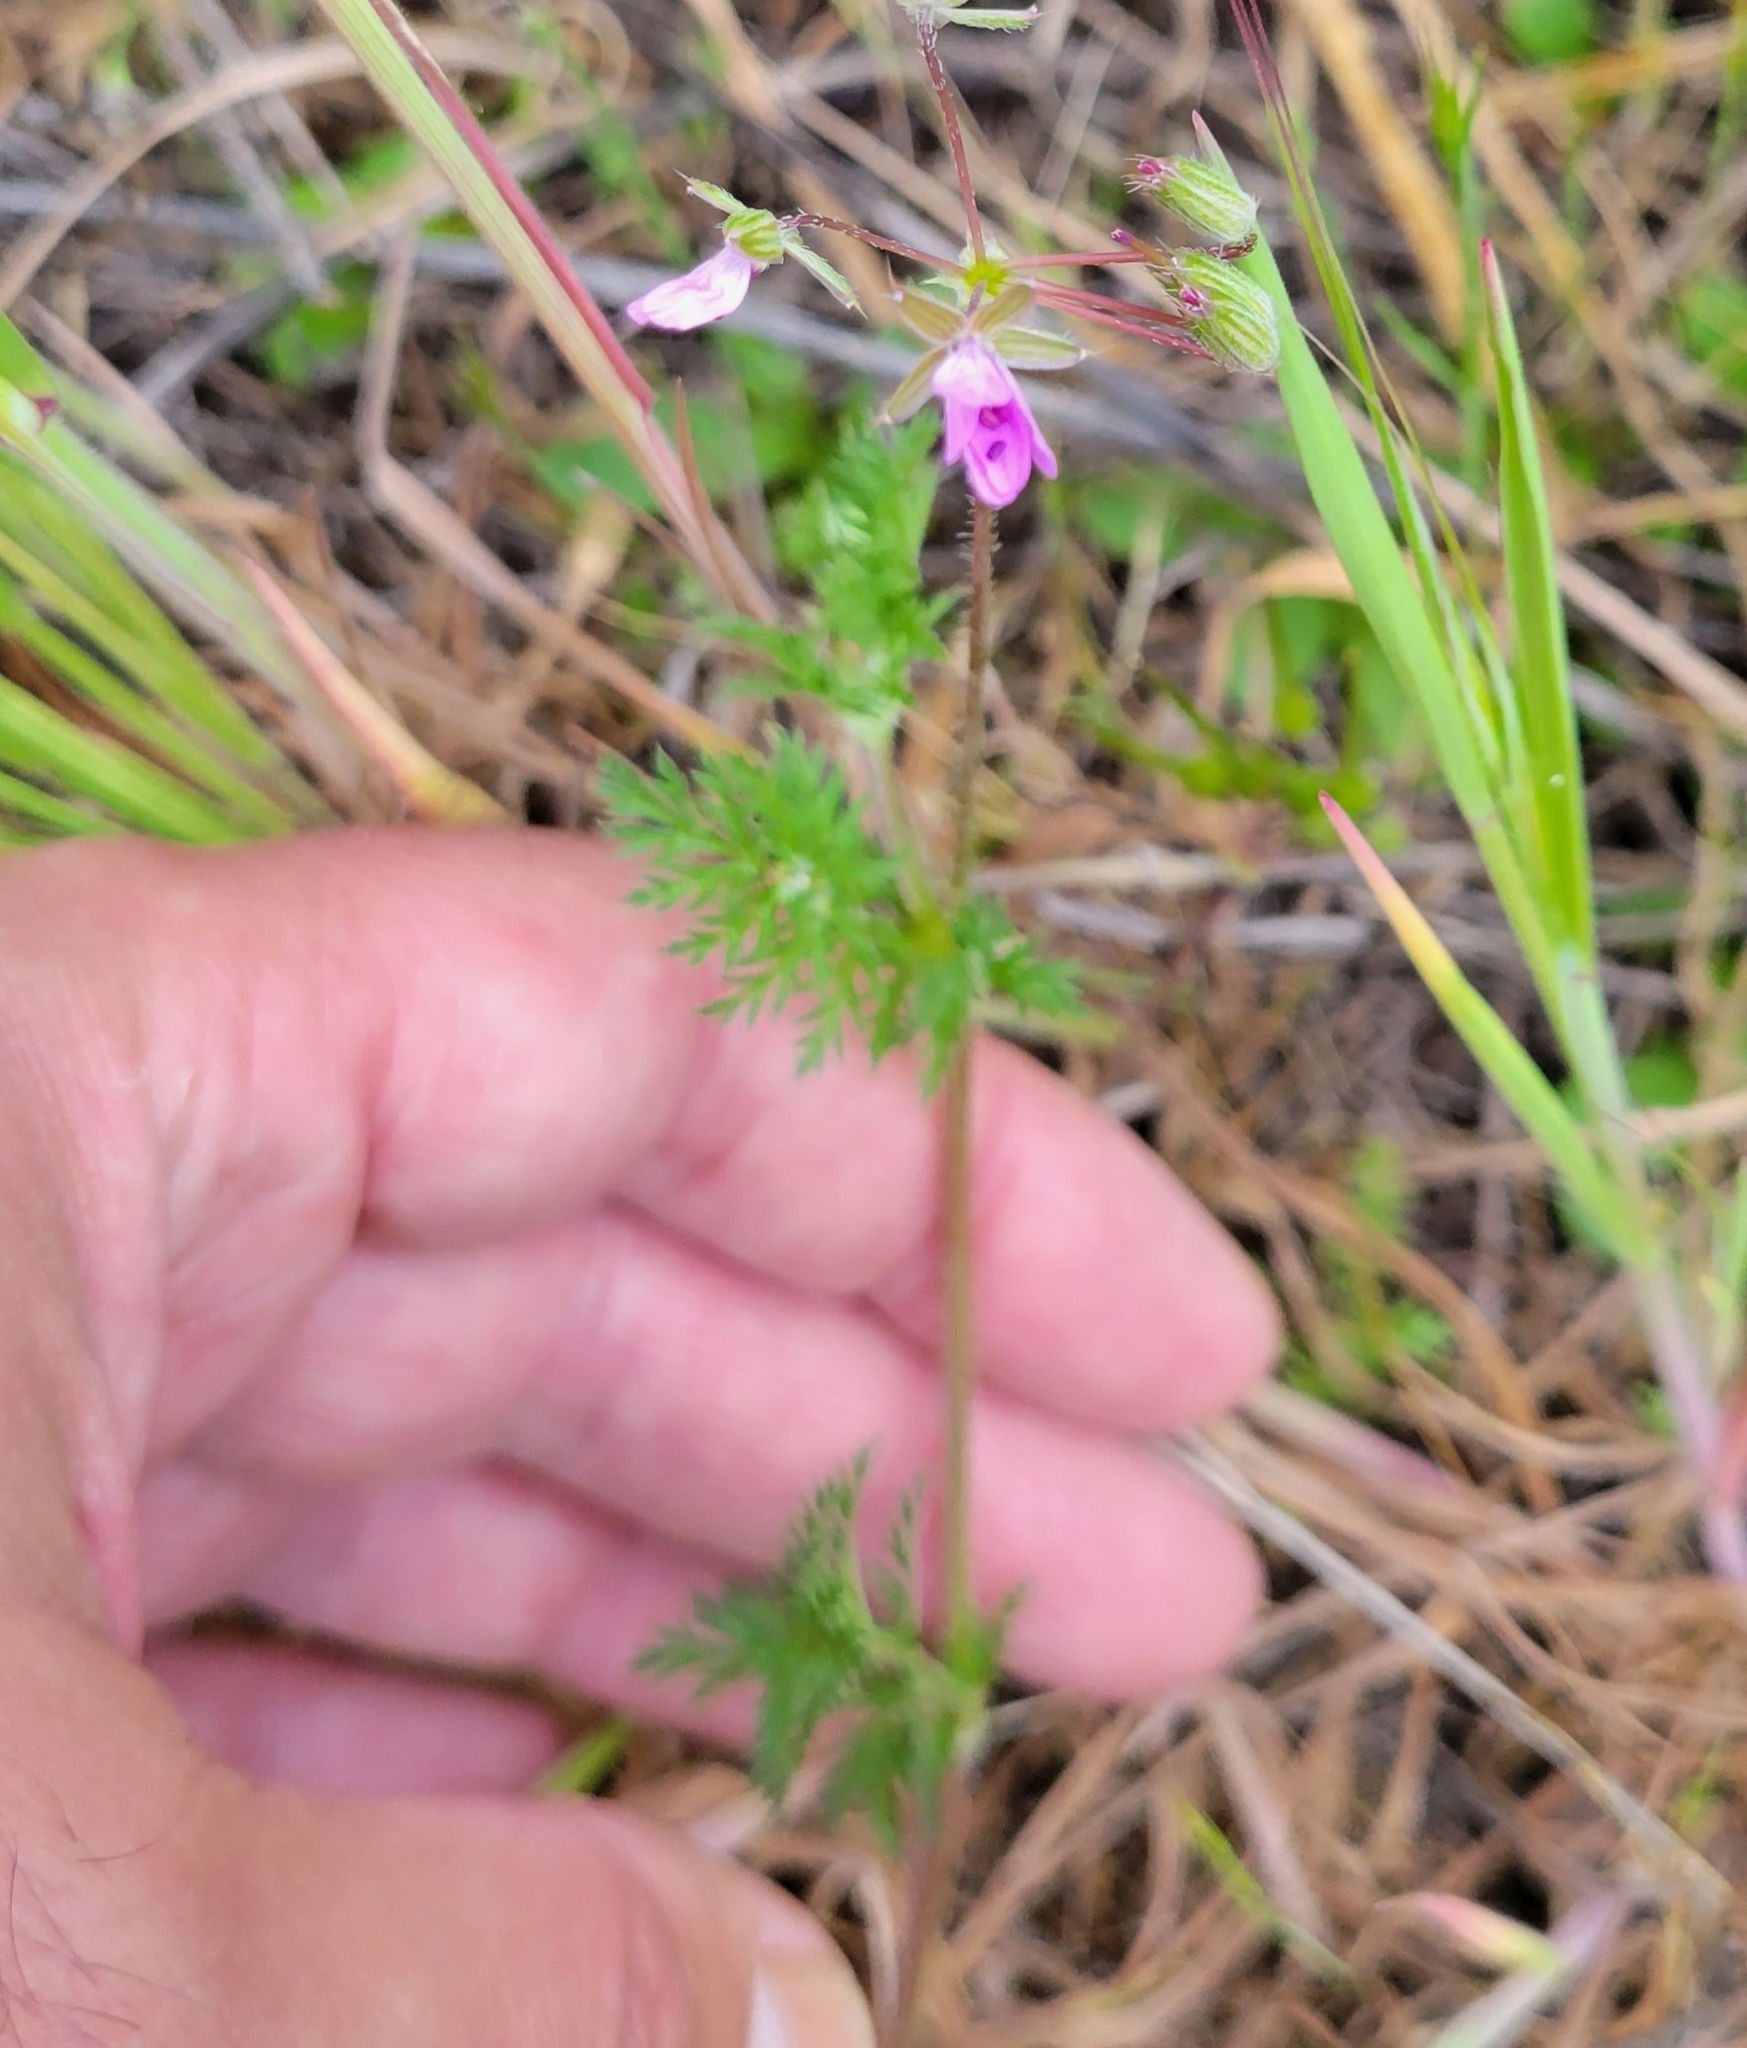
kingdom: Plantae
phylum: Tracheophyta
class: Magnoliopsida
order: Geraniales
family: Geraniaceae
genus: Erodium
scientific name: Erodium cicutarium
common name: Common stork's-bill
